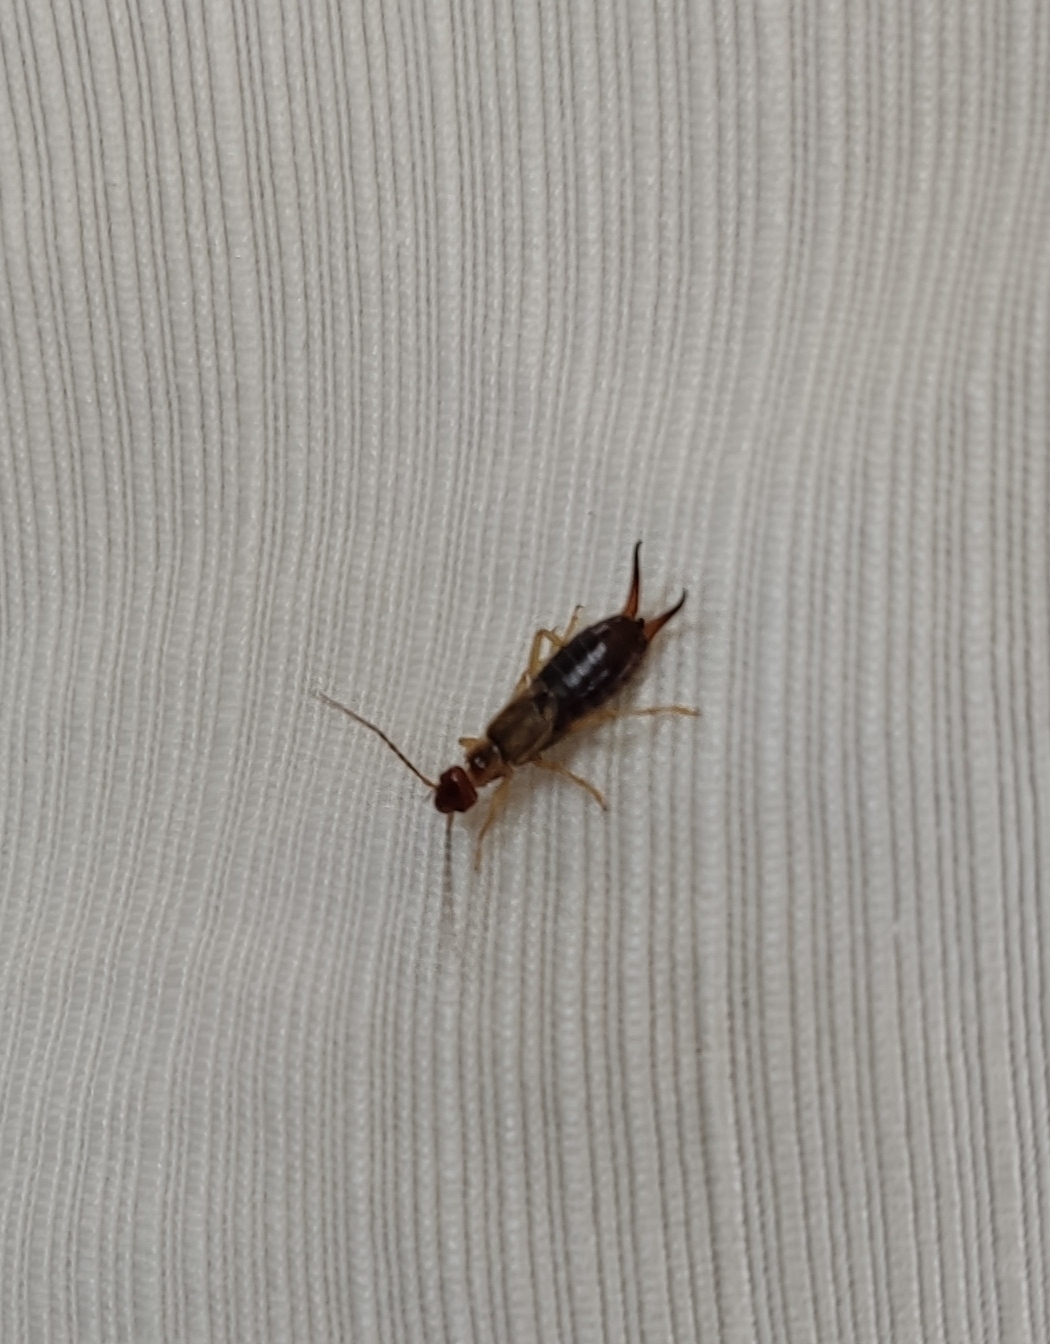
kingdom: Animalia
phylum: Arthropoda
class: Insecta
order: Dermaptera
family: Forficulidae
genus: Forficula
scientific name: Forficula
